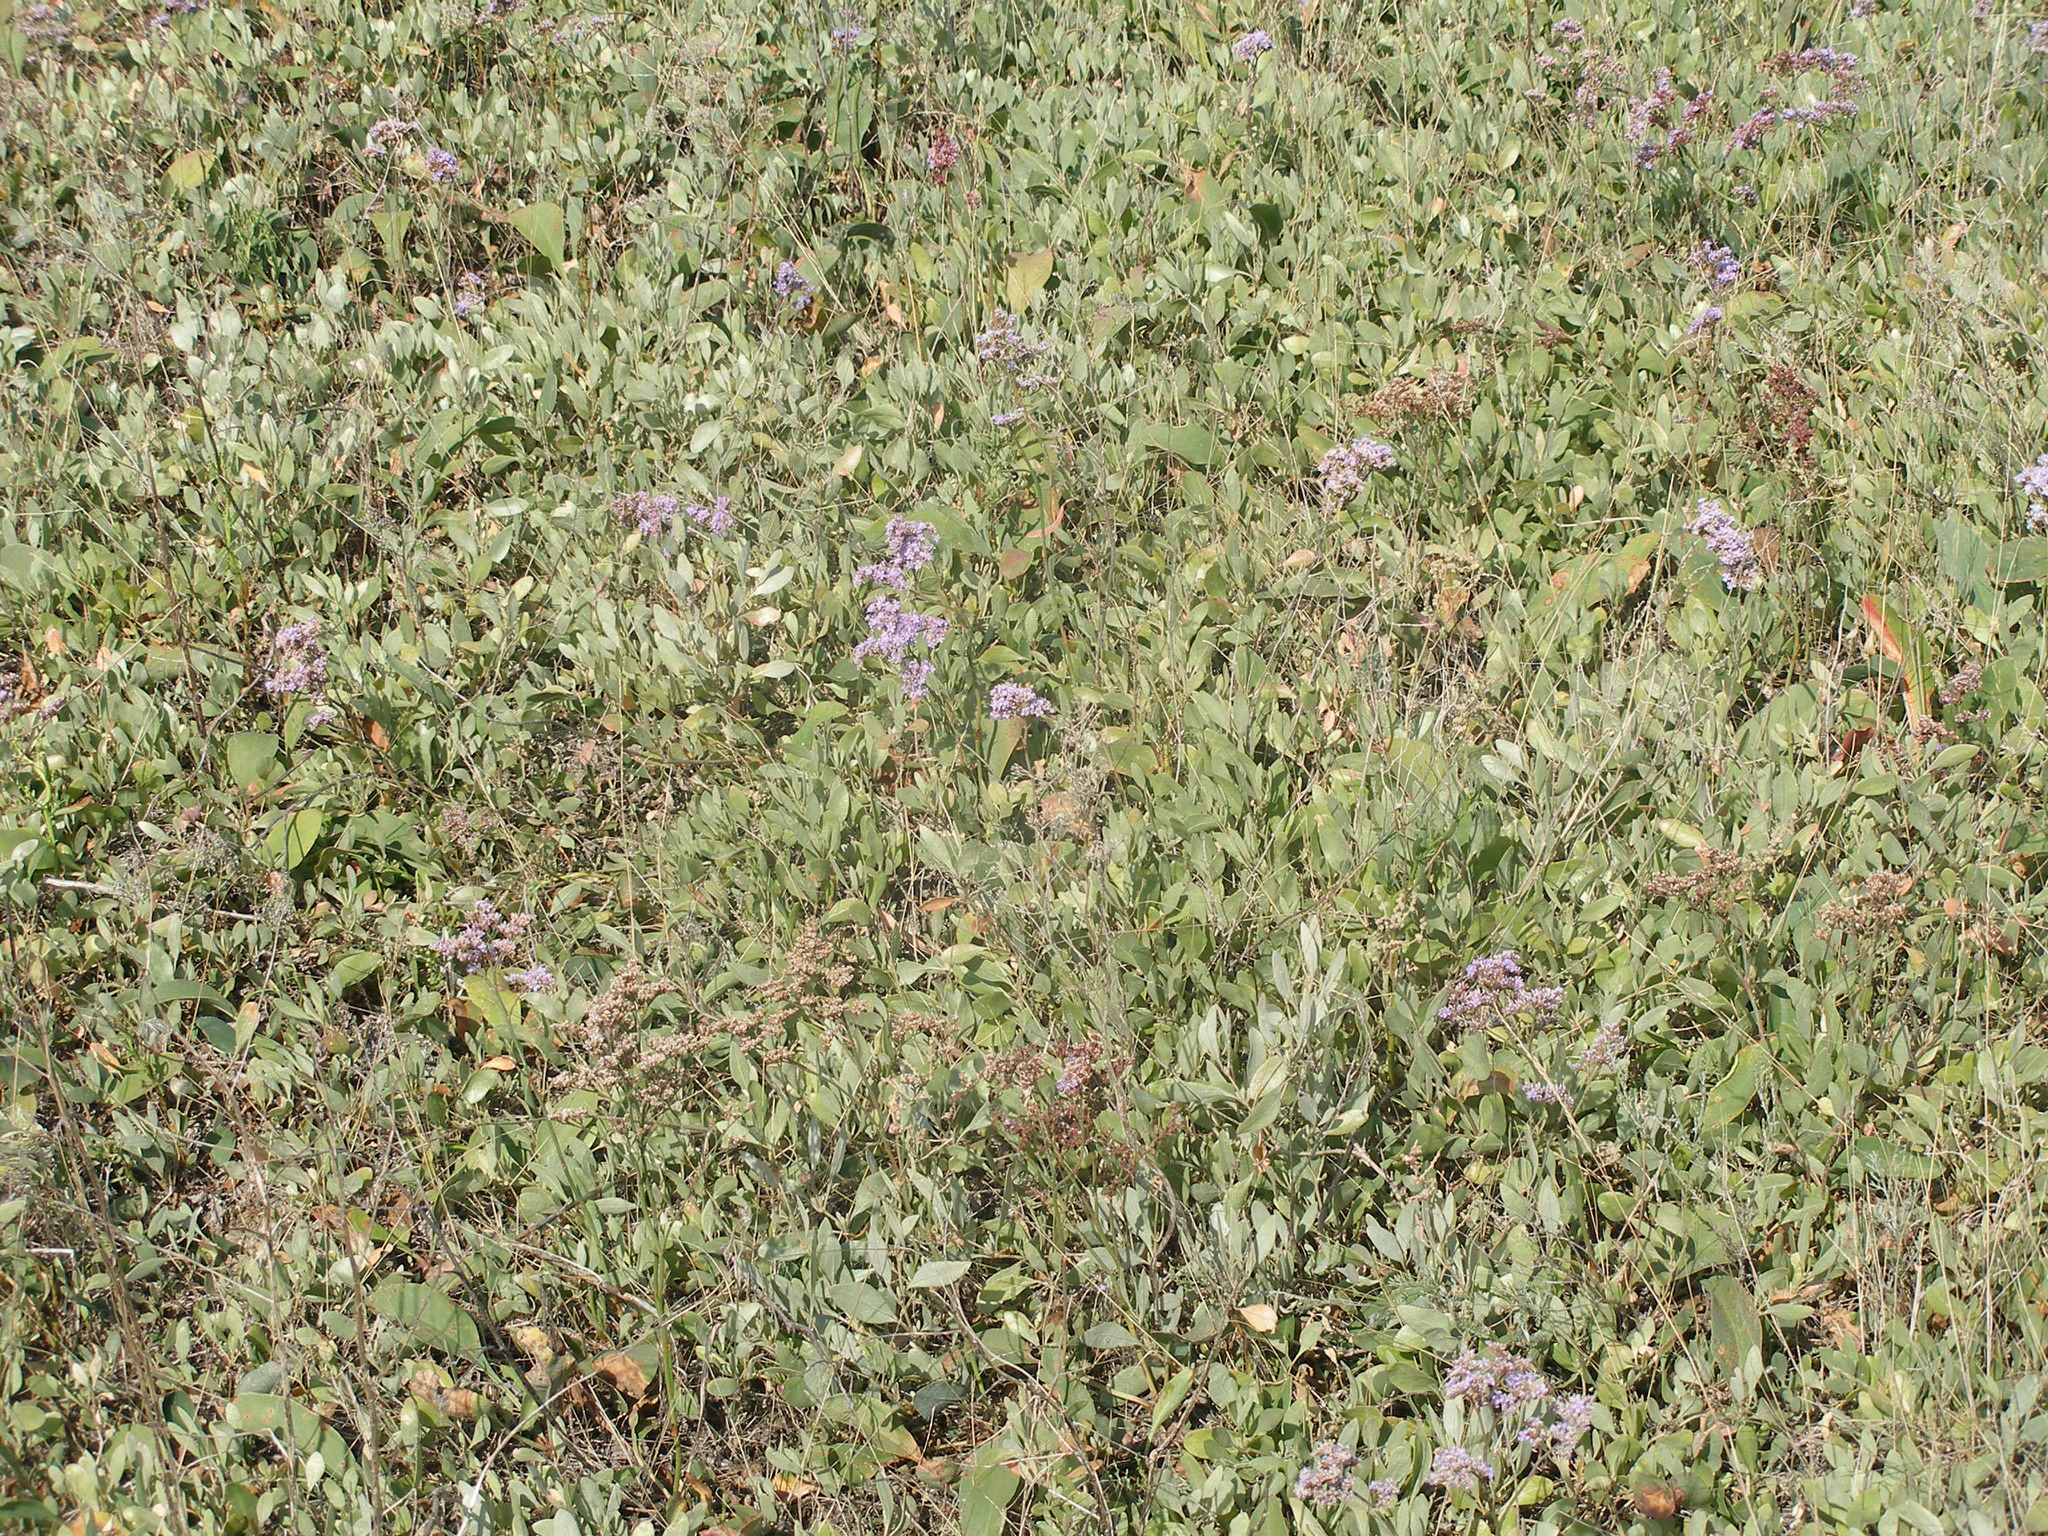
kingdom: Plantae
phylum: Tracheophyta
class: Magnoliopsida
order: Caryophyllales
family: Amaranthaceae
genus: Halimione
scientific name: Halimione verrucifera
